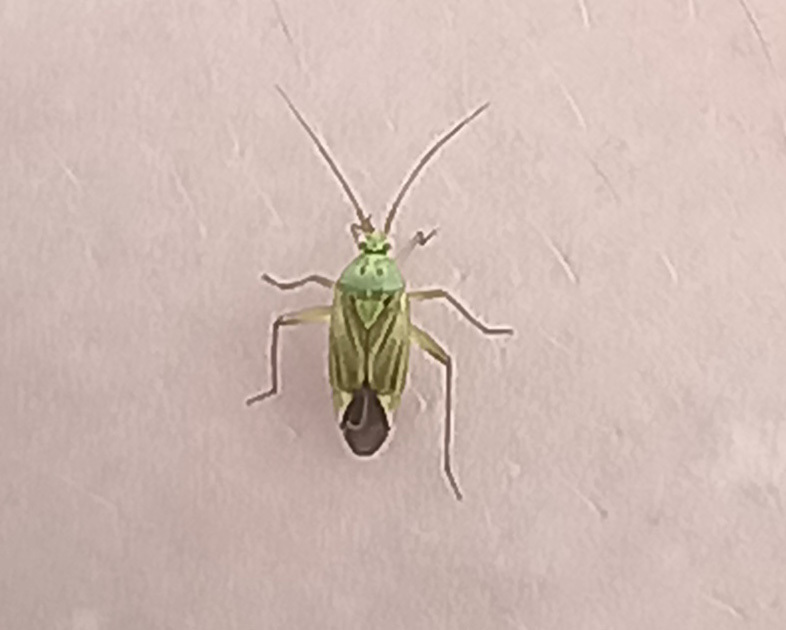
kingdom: Animalia
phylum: Arthropoda
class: Insecta
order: Hemiptera
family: Miridae
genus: Closterotomus
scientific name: Closterotomus norvegicus
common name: Plant bug
